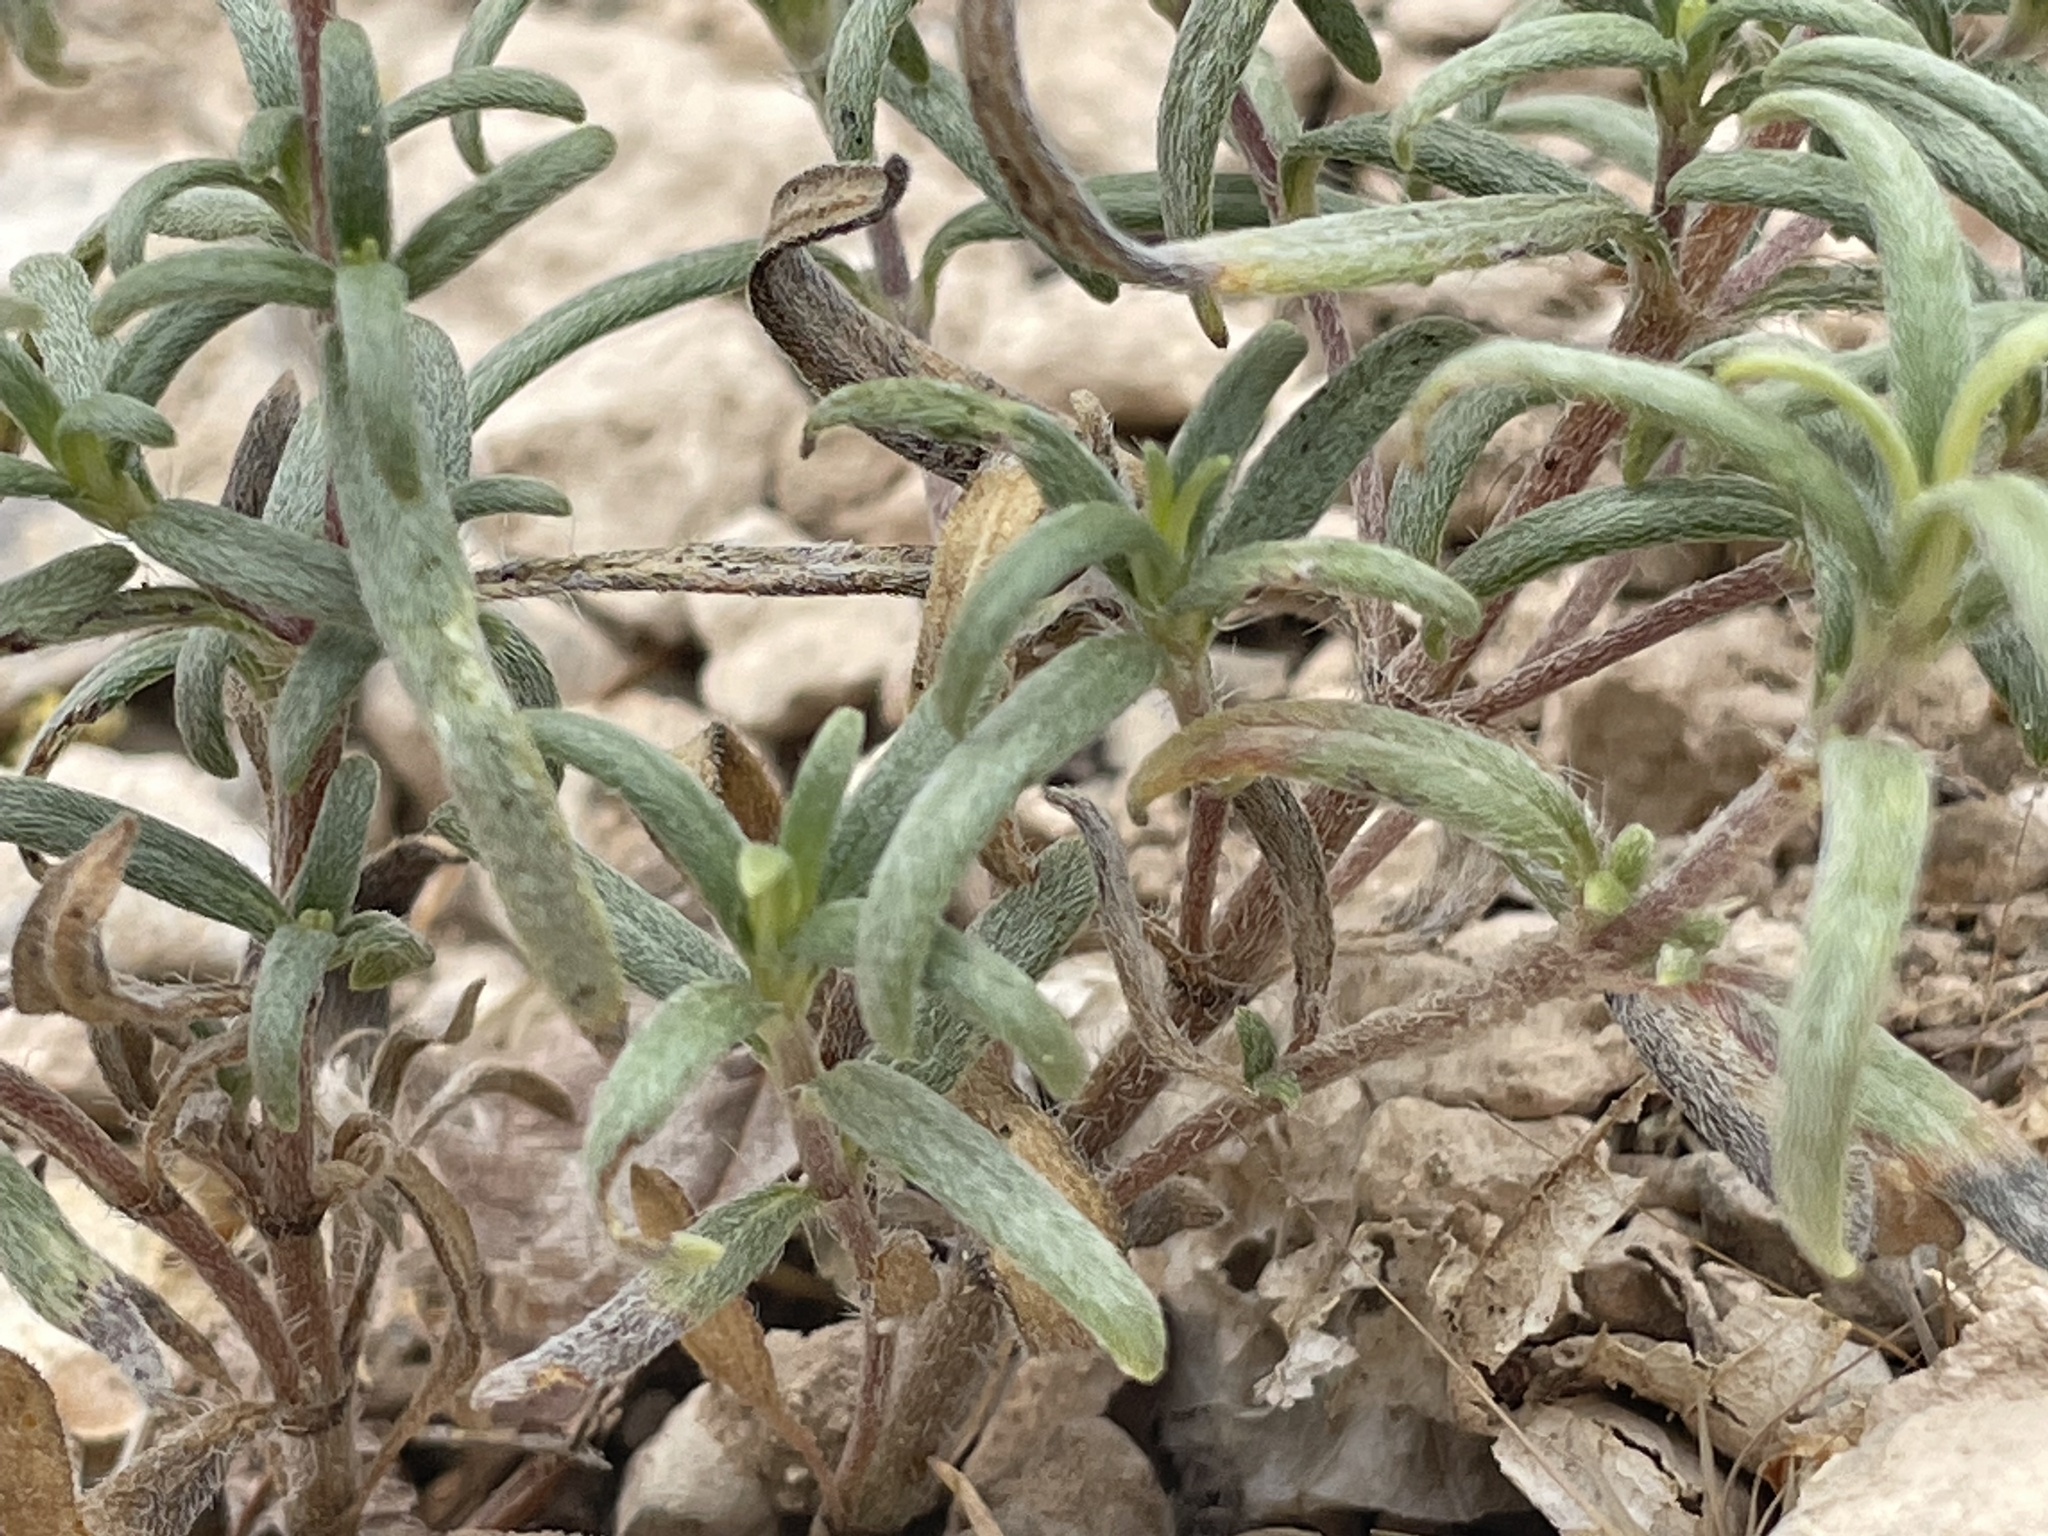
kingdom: Plantae
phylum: Tracheophyta
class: Magnoliopsida
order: Asterales
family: Asteraceae
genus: Heliomeris
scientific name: Heliomeris multiflora
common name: Showy goldeneye
